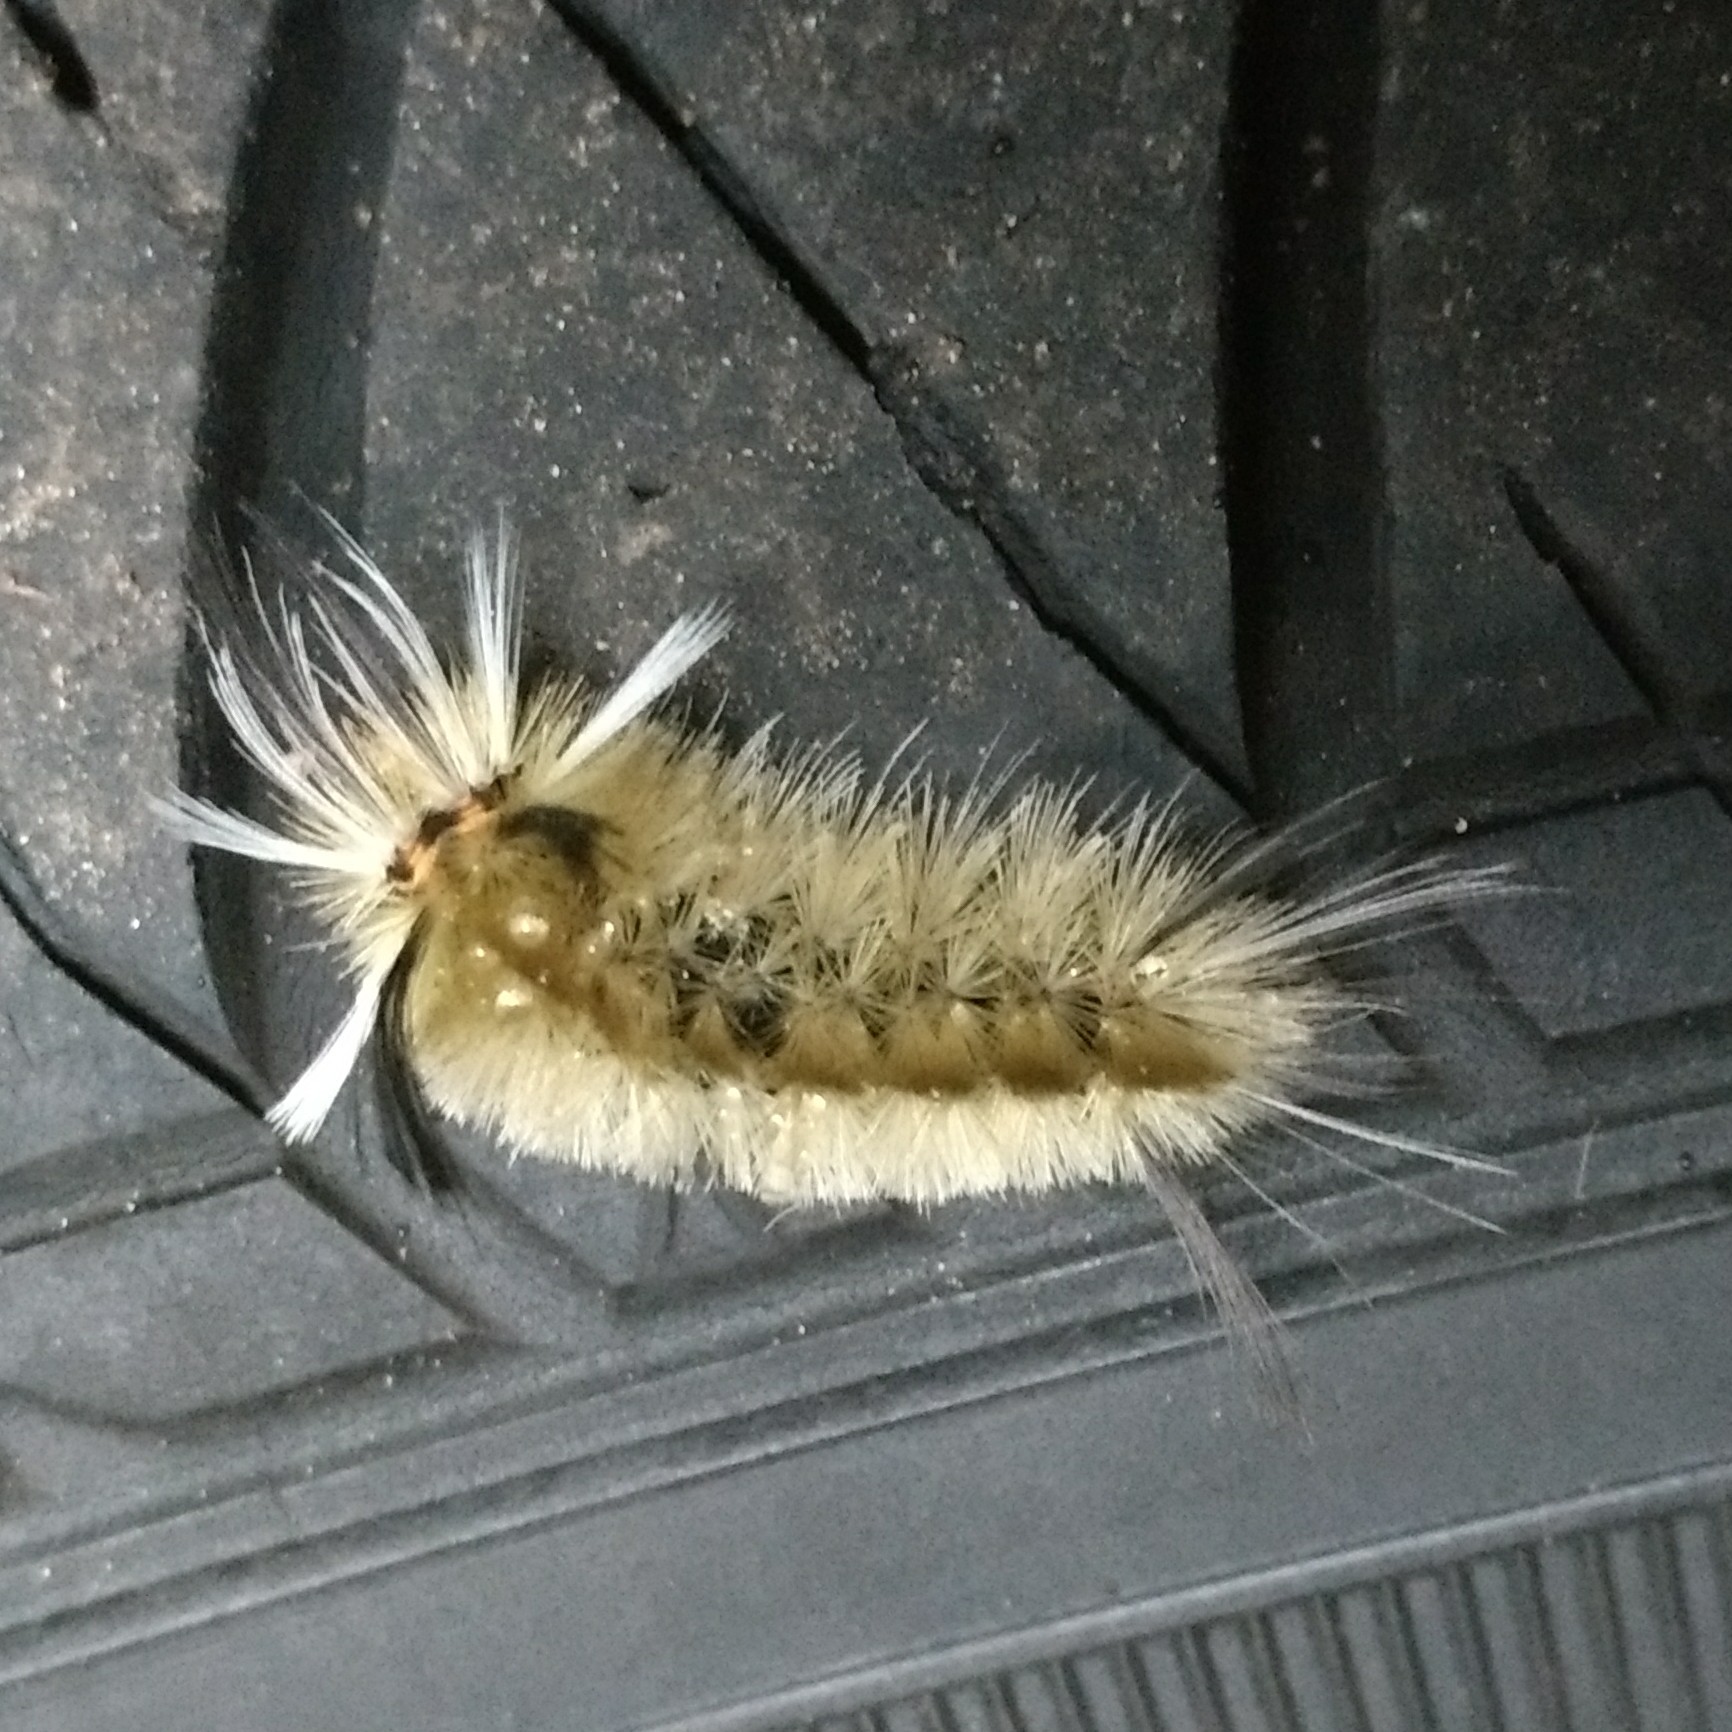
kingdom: Animalia
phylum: Arthropoda
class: Insecta
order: Lepidoptera
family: Erebidae
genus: Halysidota
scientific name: Halysidota tessellaris
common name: Banded tussock moth
